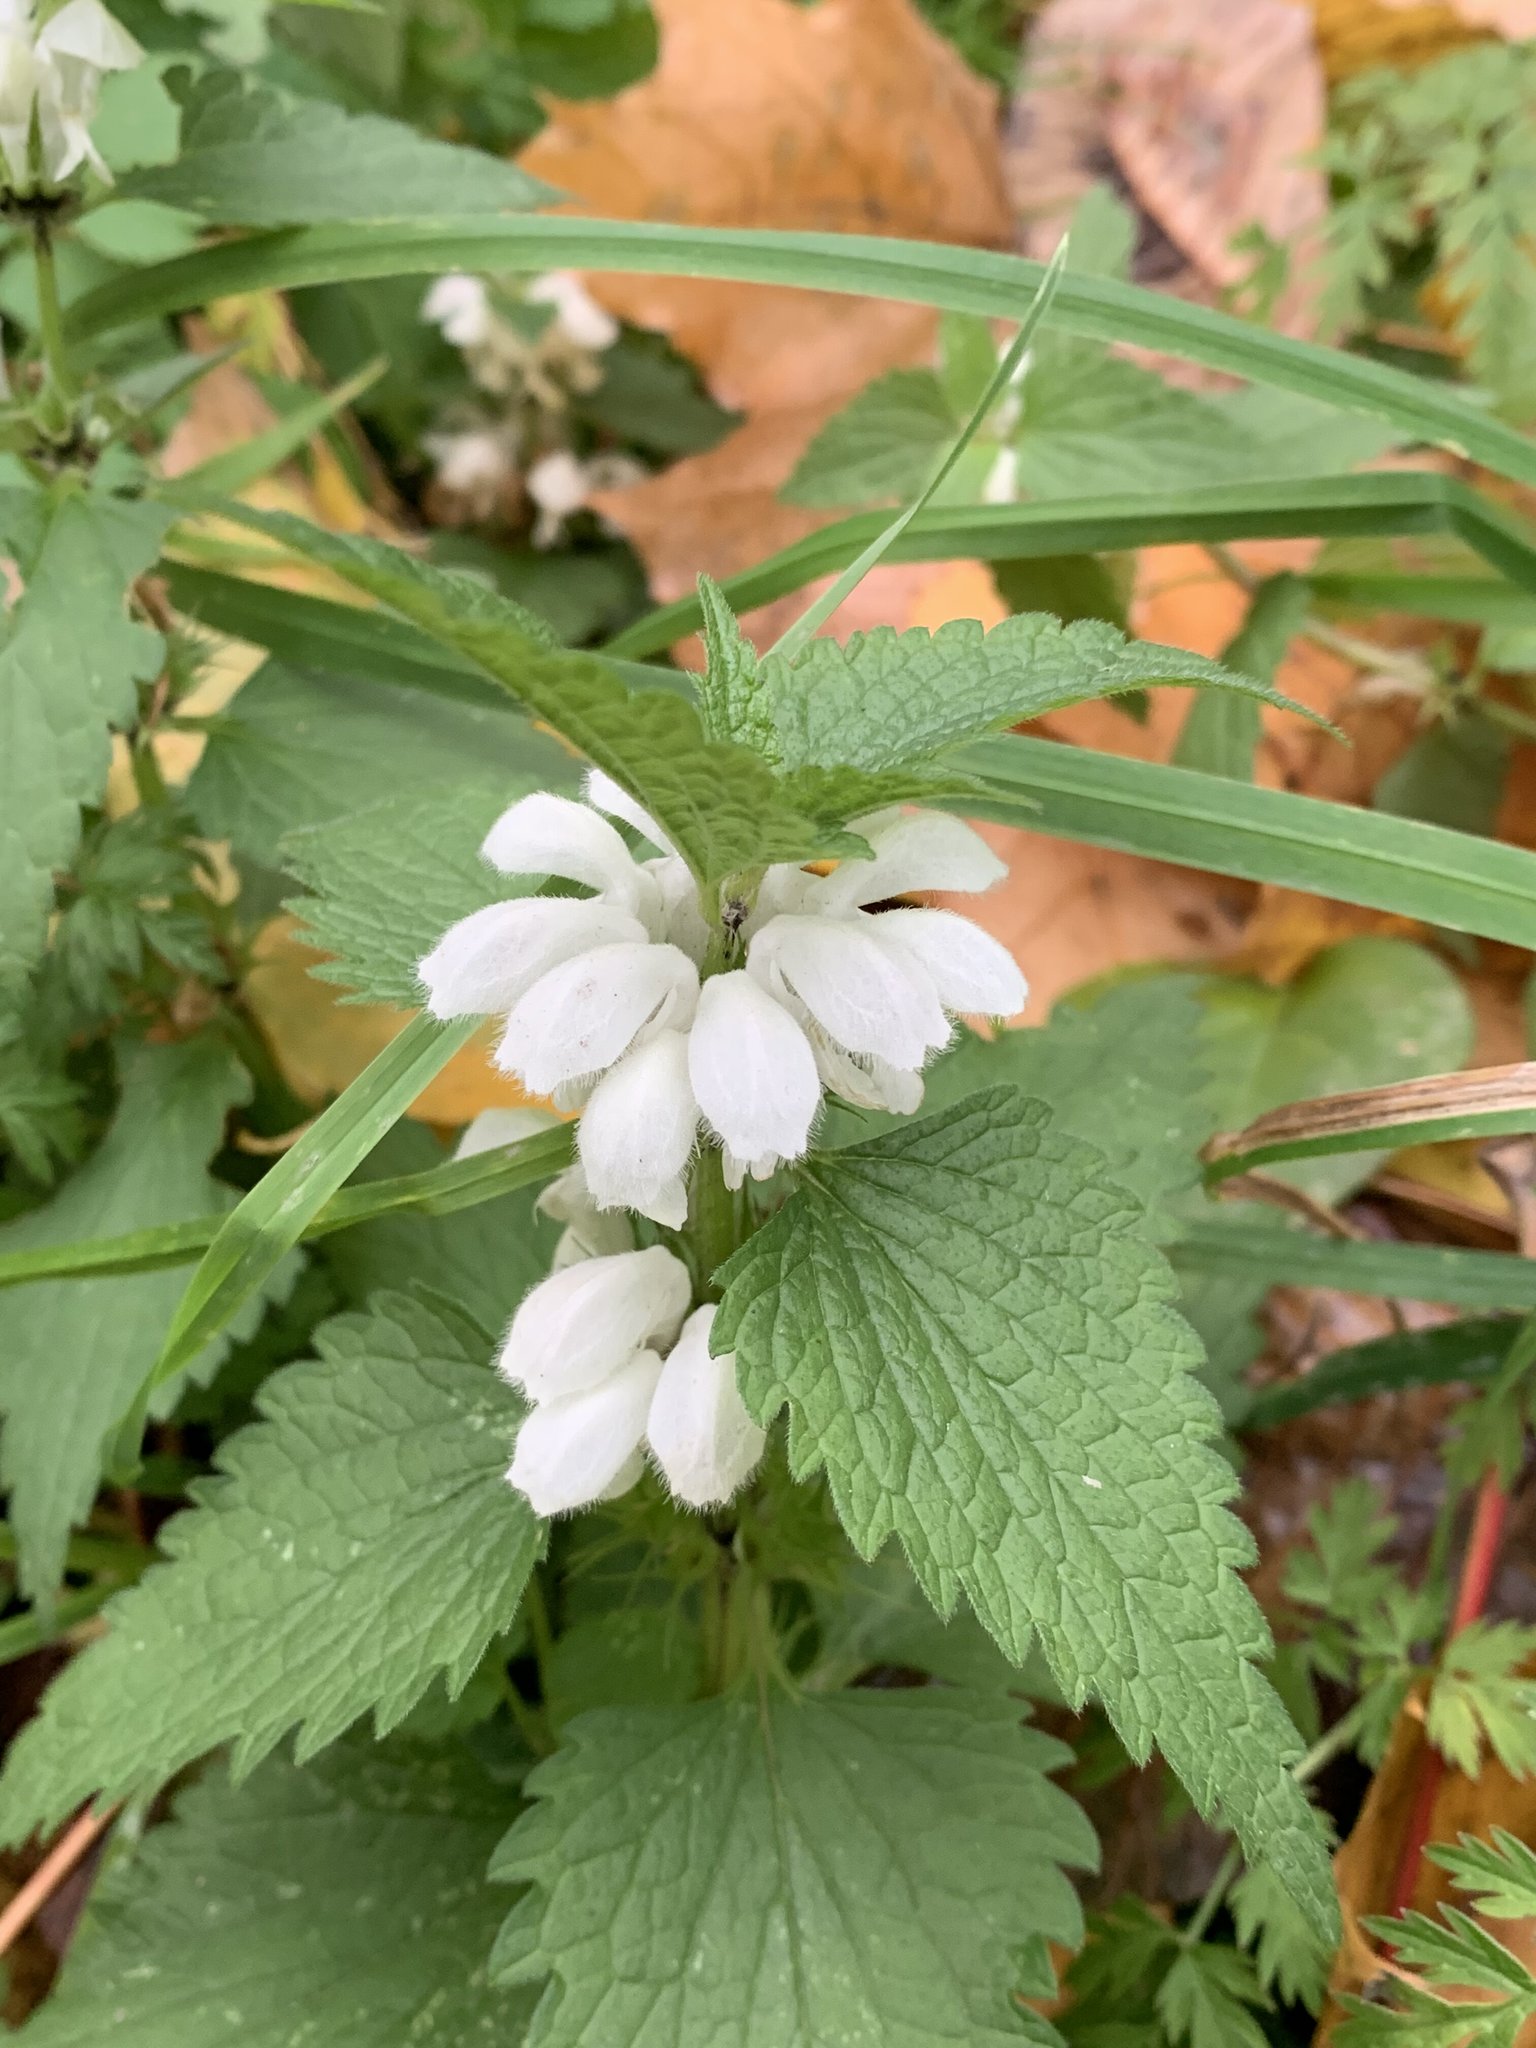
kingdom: Plantae
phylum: Tracheophyta
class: Magnoliopsida
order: Lamiales
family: Lamiaceae
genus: Lamium
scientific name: Lamium album
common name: White dead-nettle
